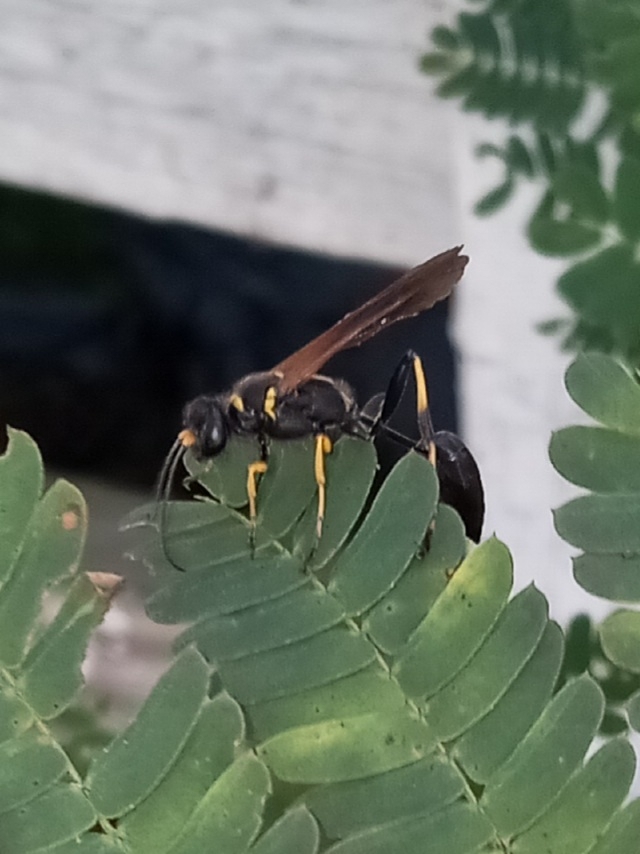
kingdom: Animalia
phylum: Arthropoda
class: Insecta
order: Hymenoptera
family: Sphecidae
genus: Sceliphron
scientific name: Sceliphron caementarium
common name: Mud dauber
